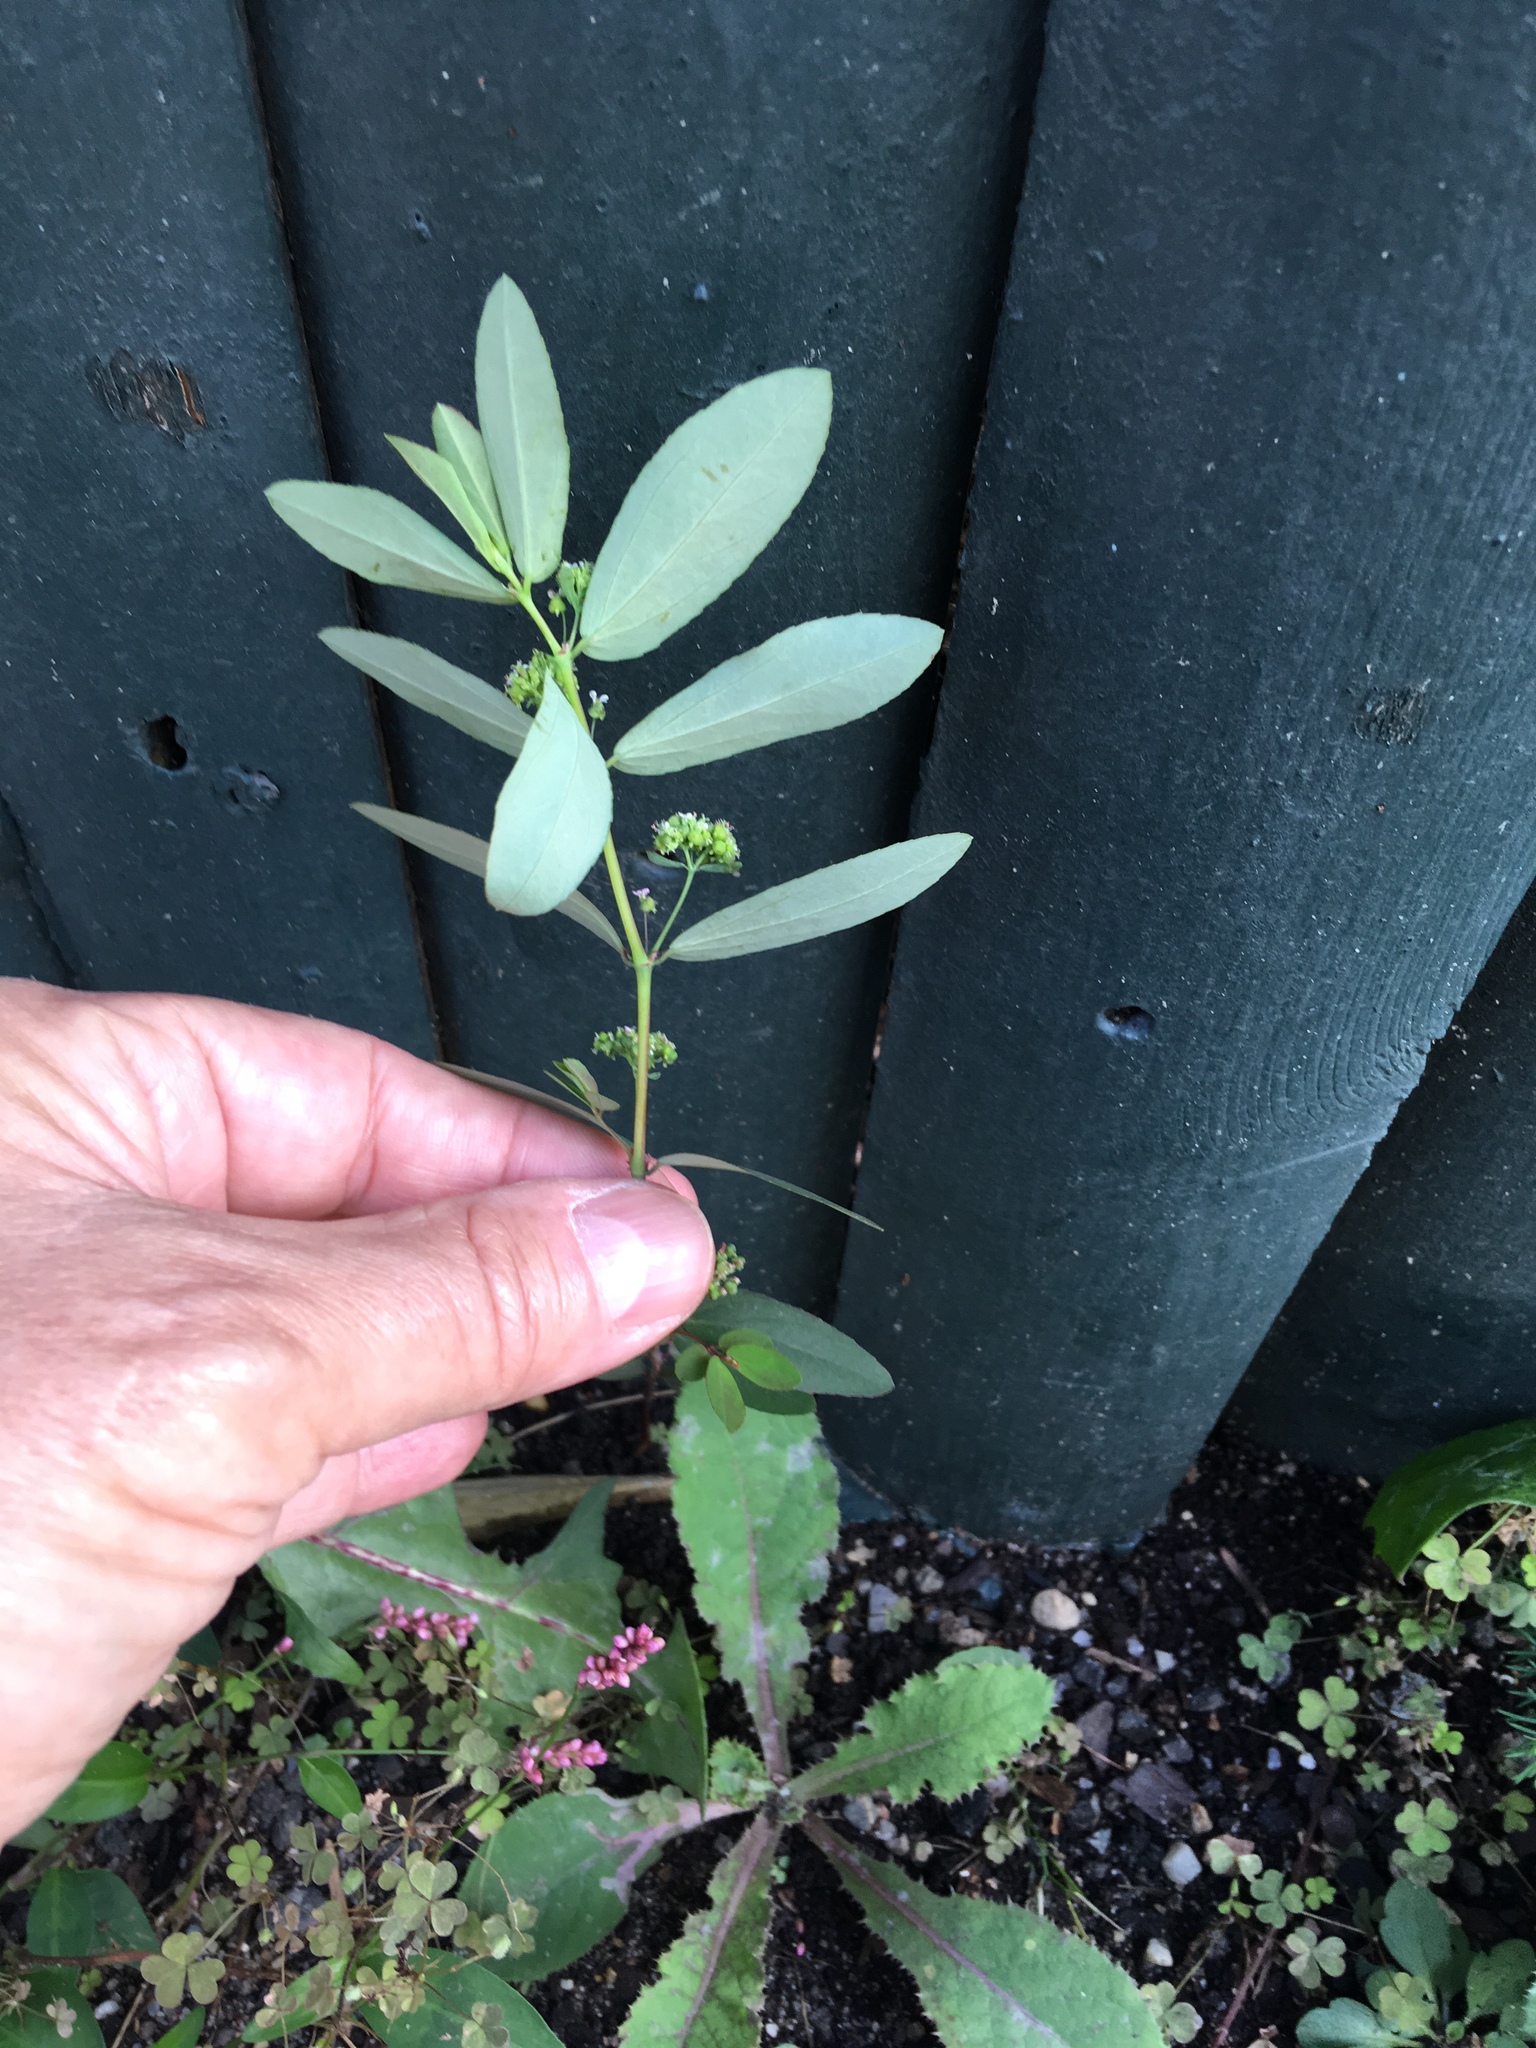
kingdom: Plantae
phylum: Tracheophyta
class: Magnoliopsida
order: Malpighiales
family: Euphorbiaceae
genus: Euphorbia
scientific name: Euphorbia hypericifolia
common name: Graceful sandmat
